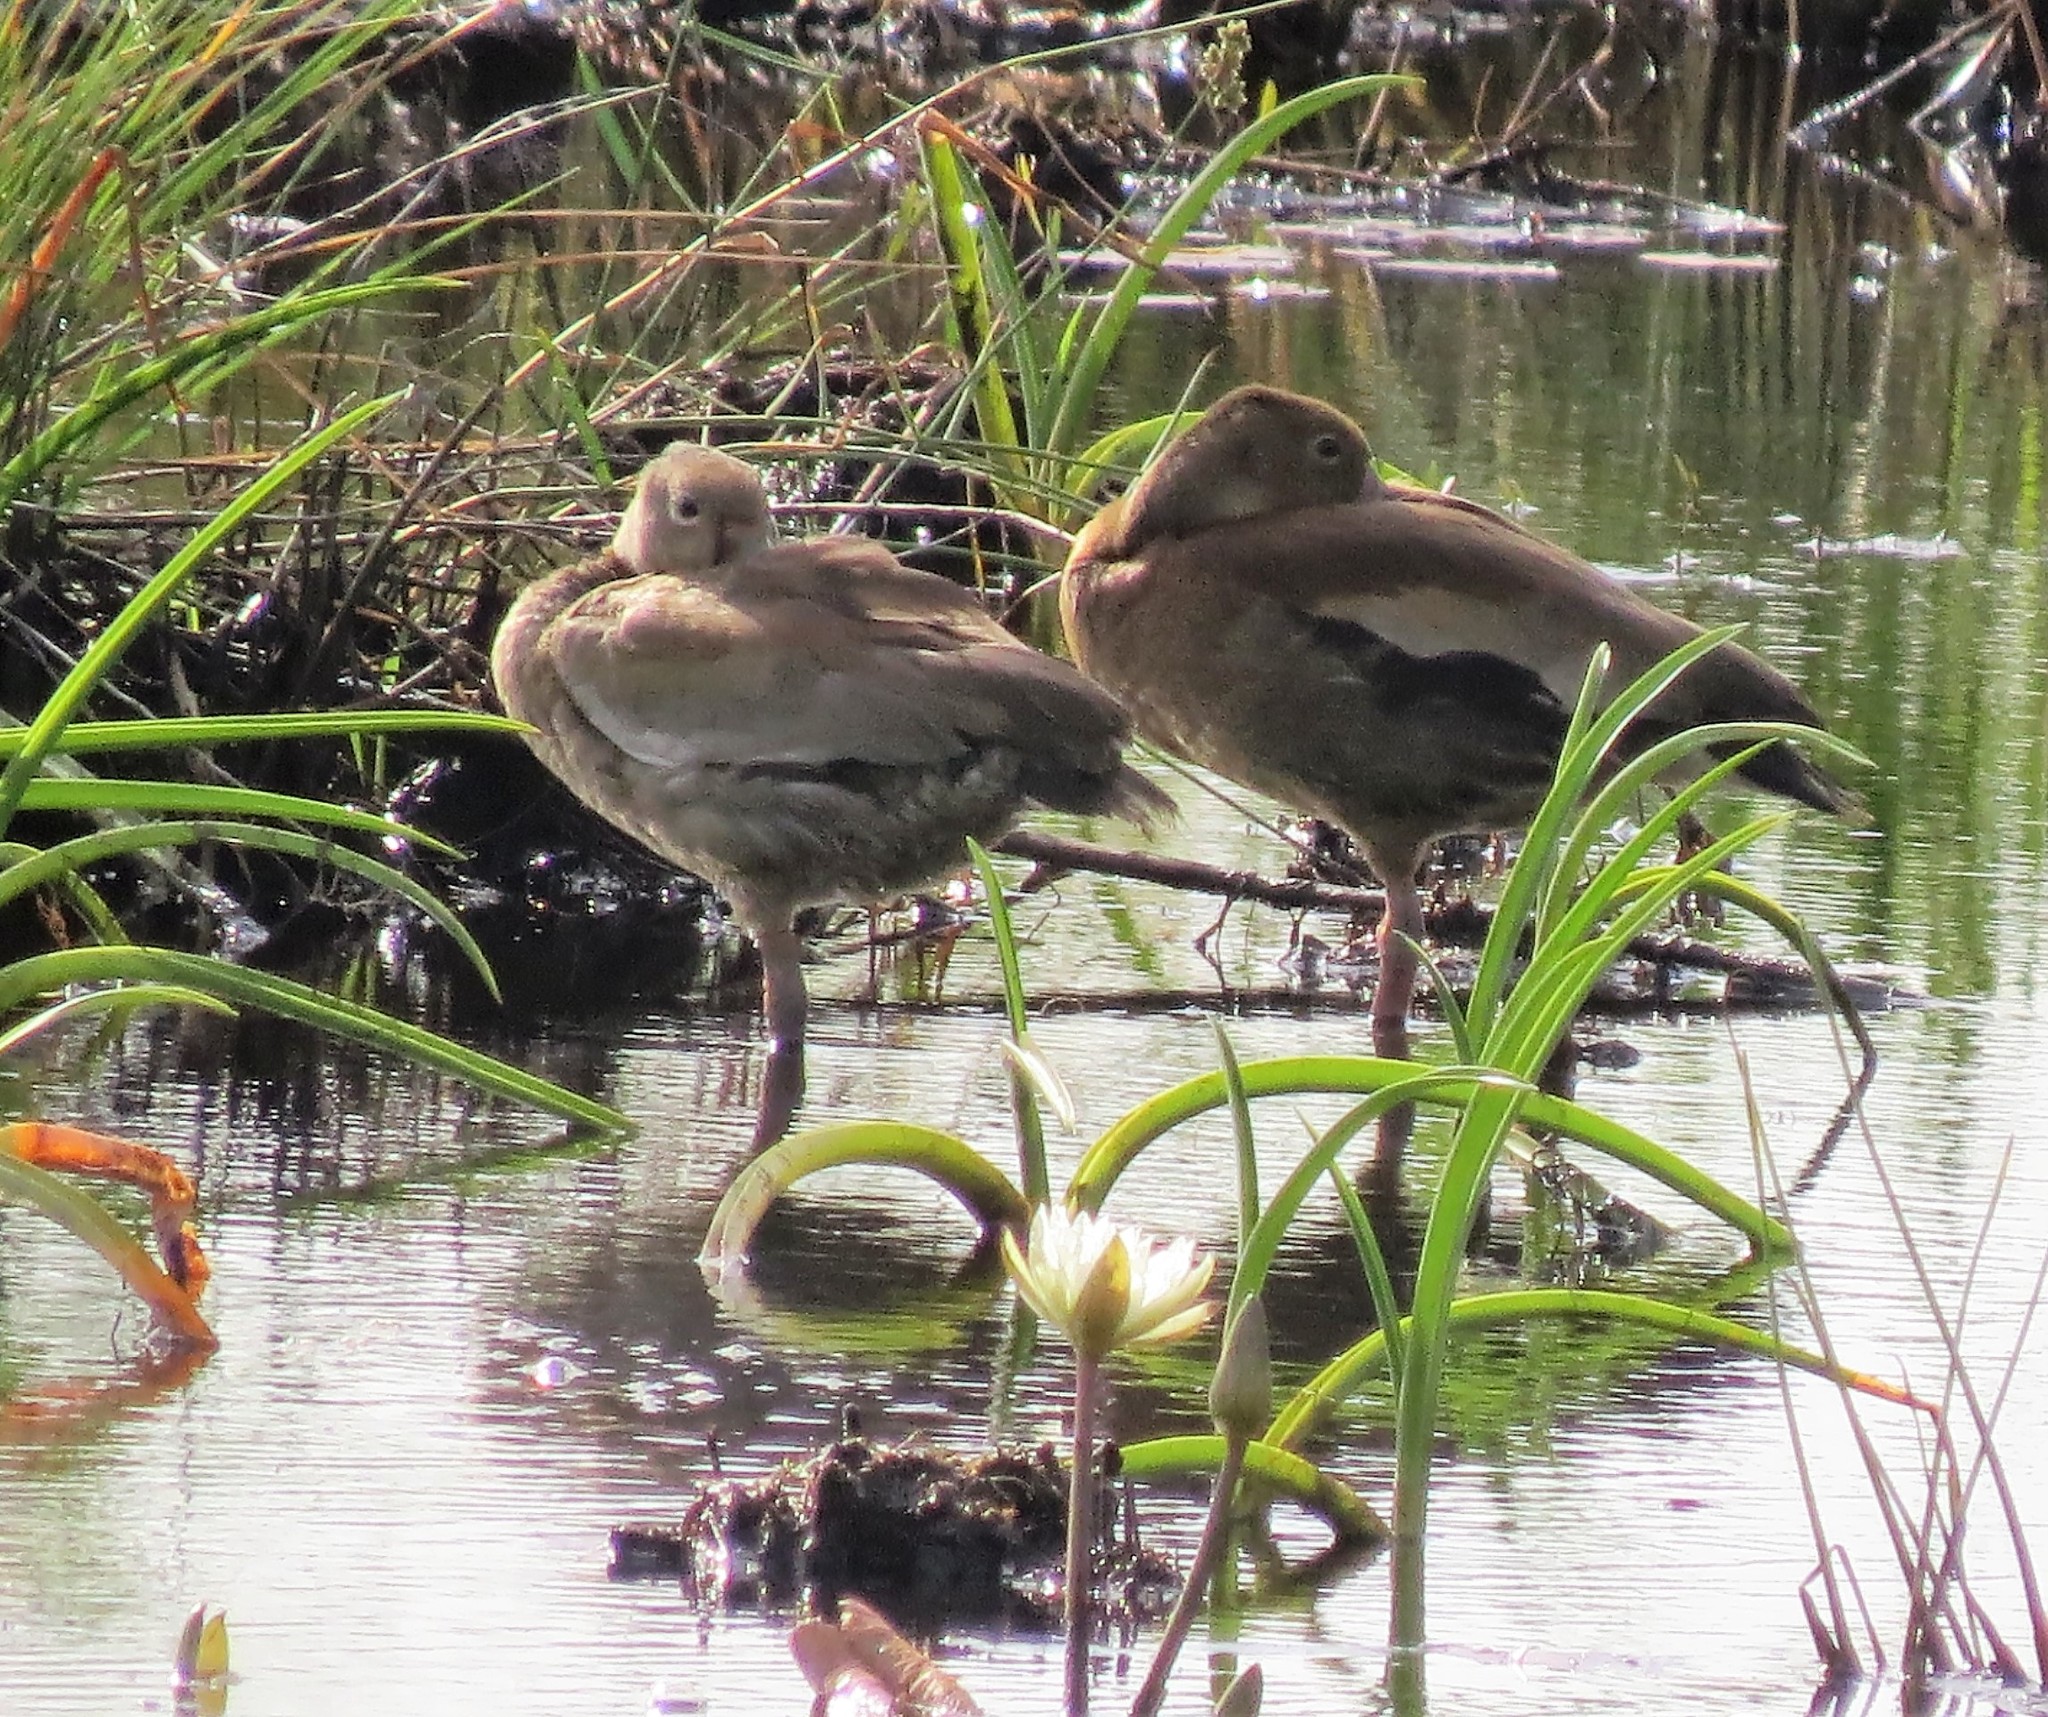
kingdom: Animalia
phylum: Chordata
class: Aves
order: Anseriformes
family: Anatidae
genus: Dendrocygna
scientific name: Dendrocygna autumnalis
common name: Black-bellied whistling duck
